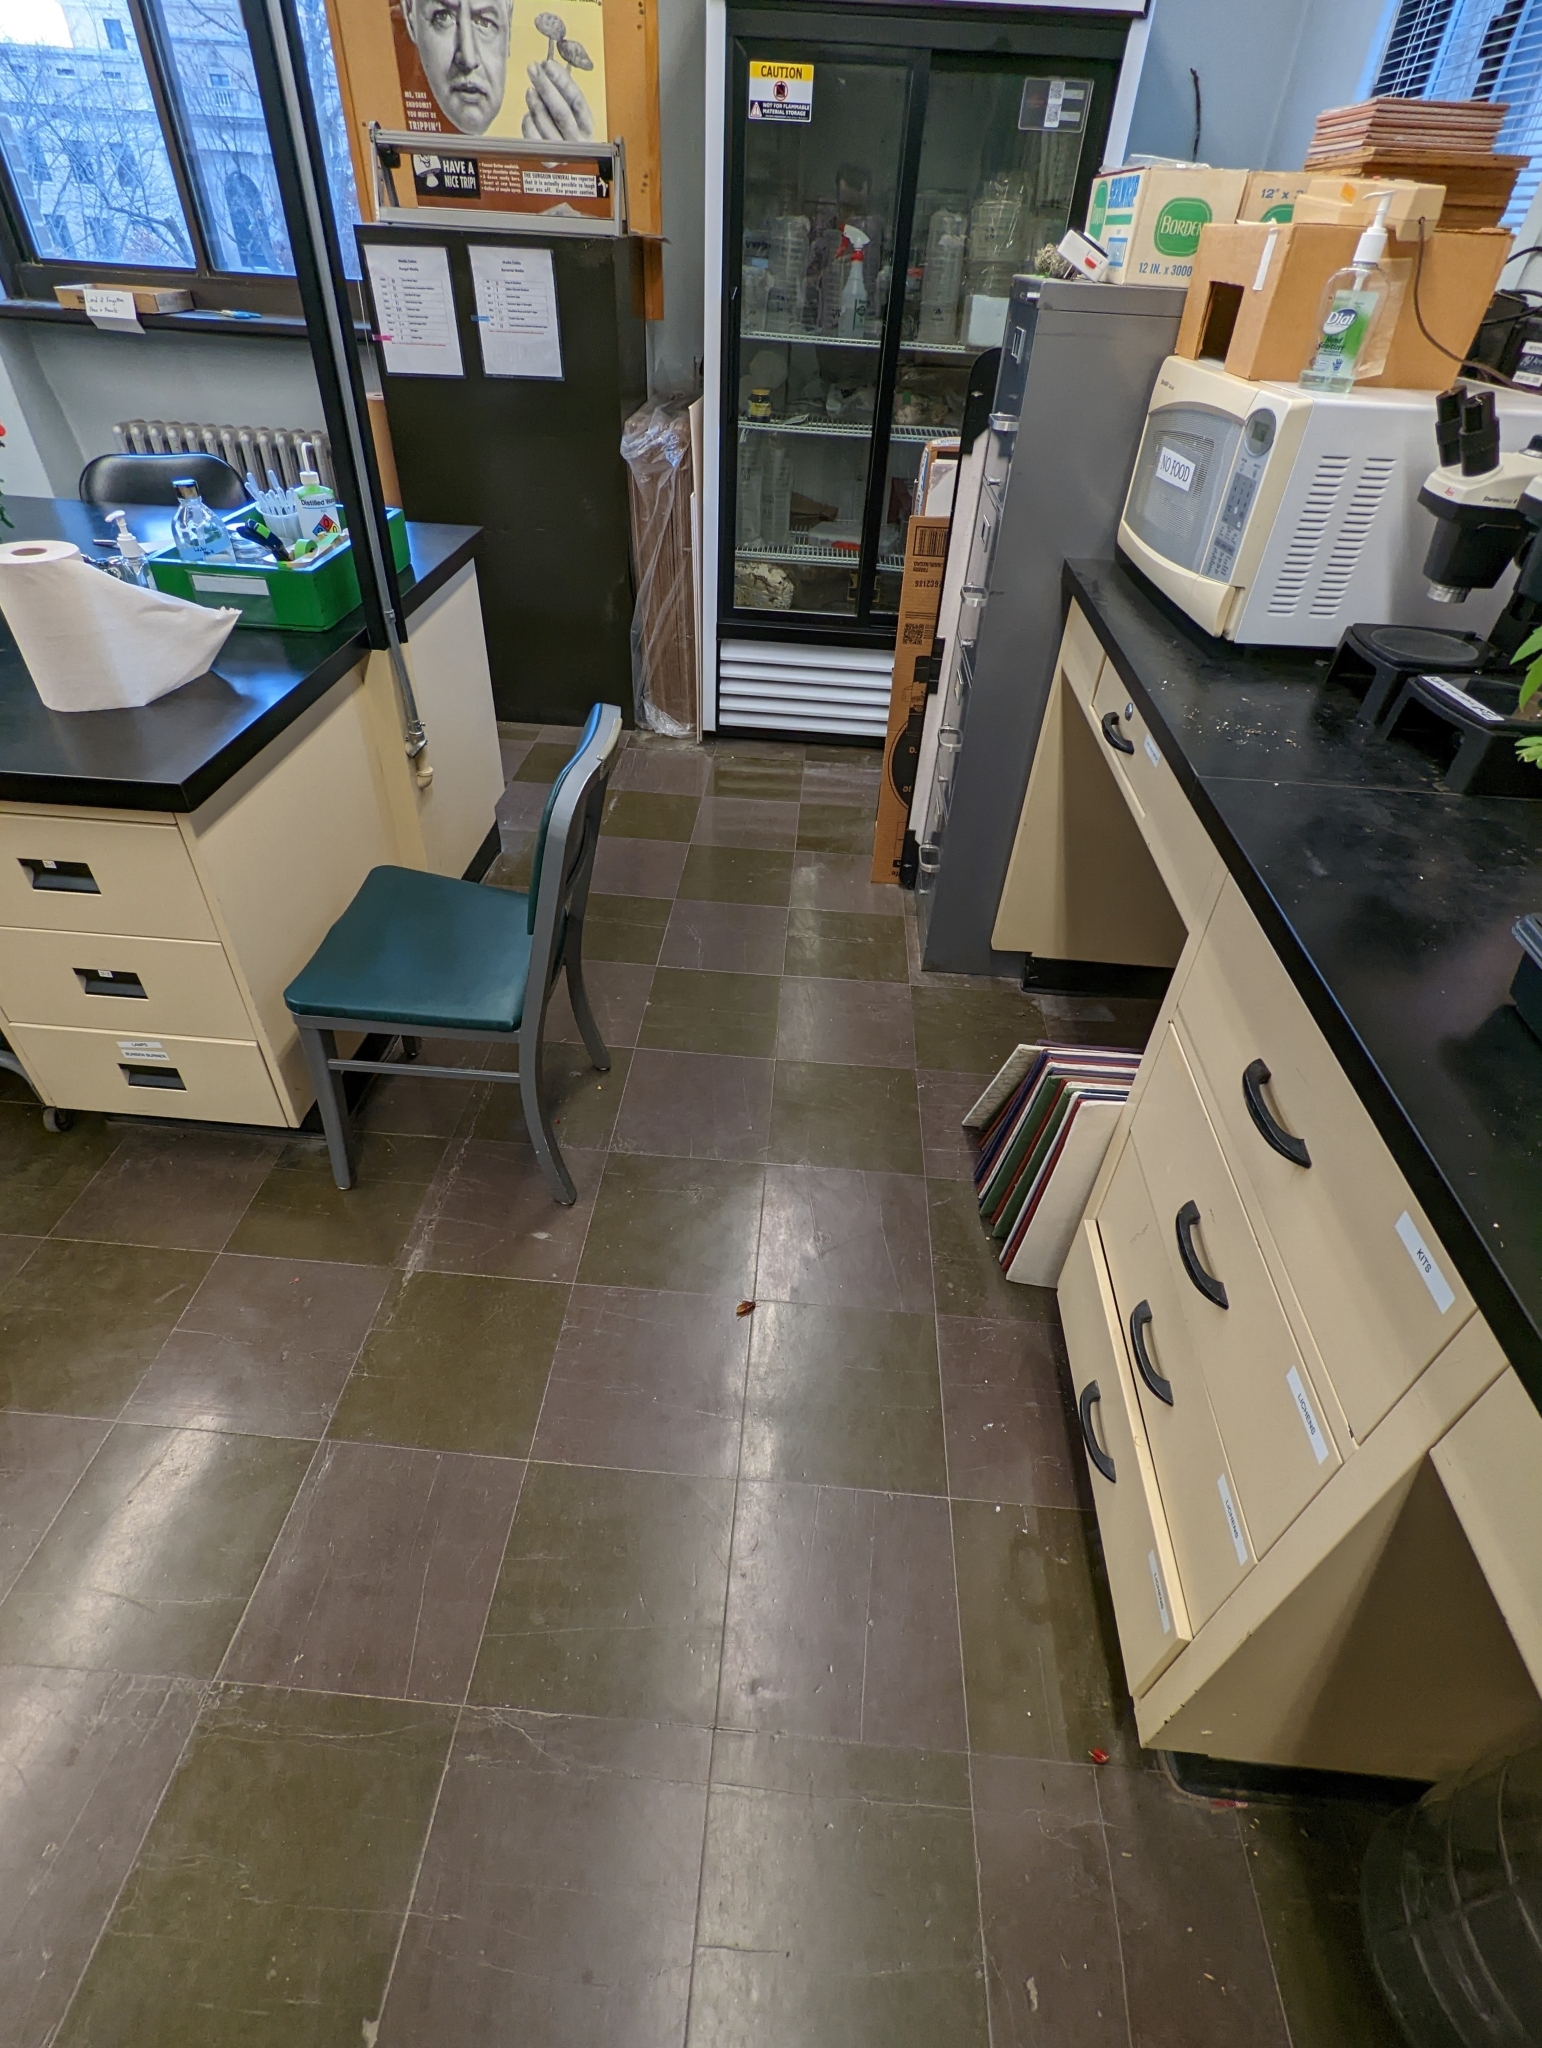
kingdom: Animalia
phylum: Arthropoda
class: Insecta
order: Blattodea
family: Blattidae
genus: Periplaneta
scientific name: Periplaneta americana
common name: American cockroach
